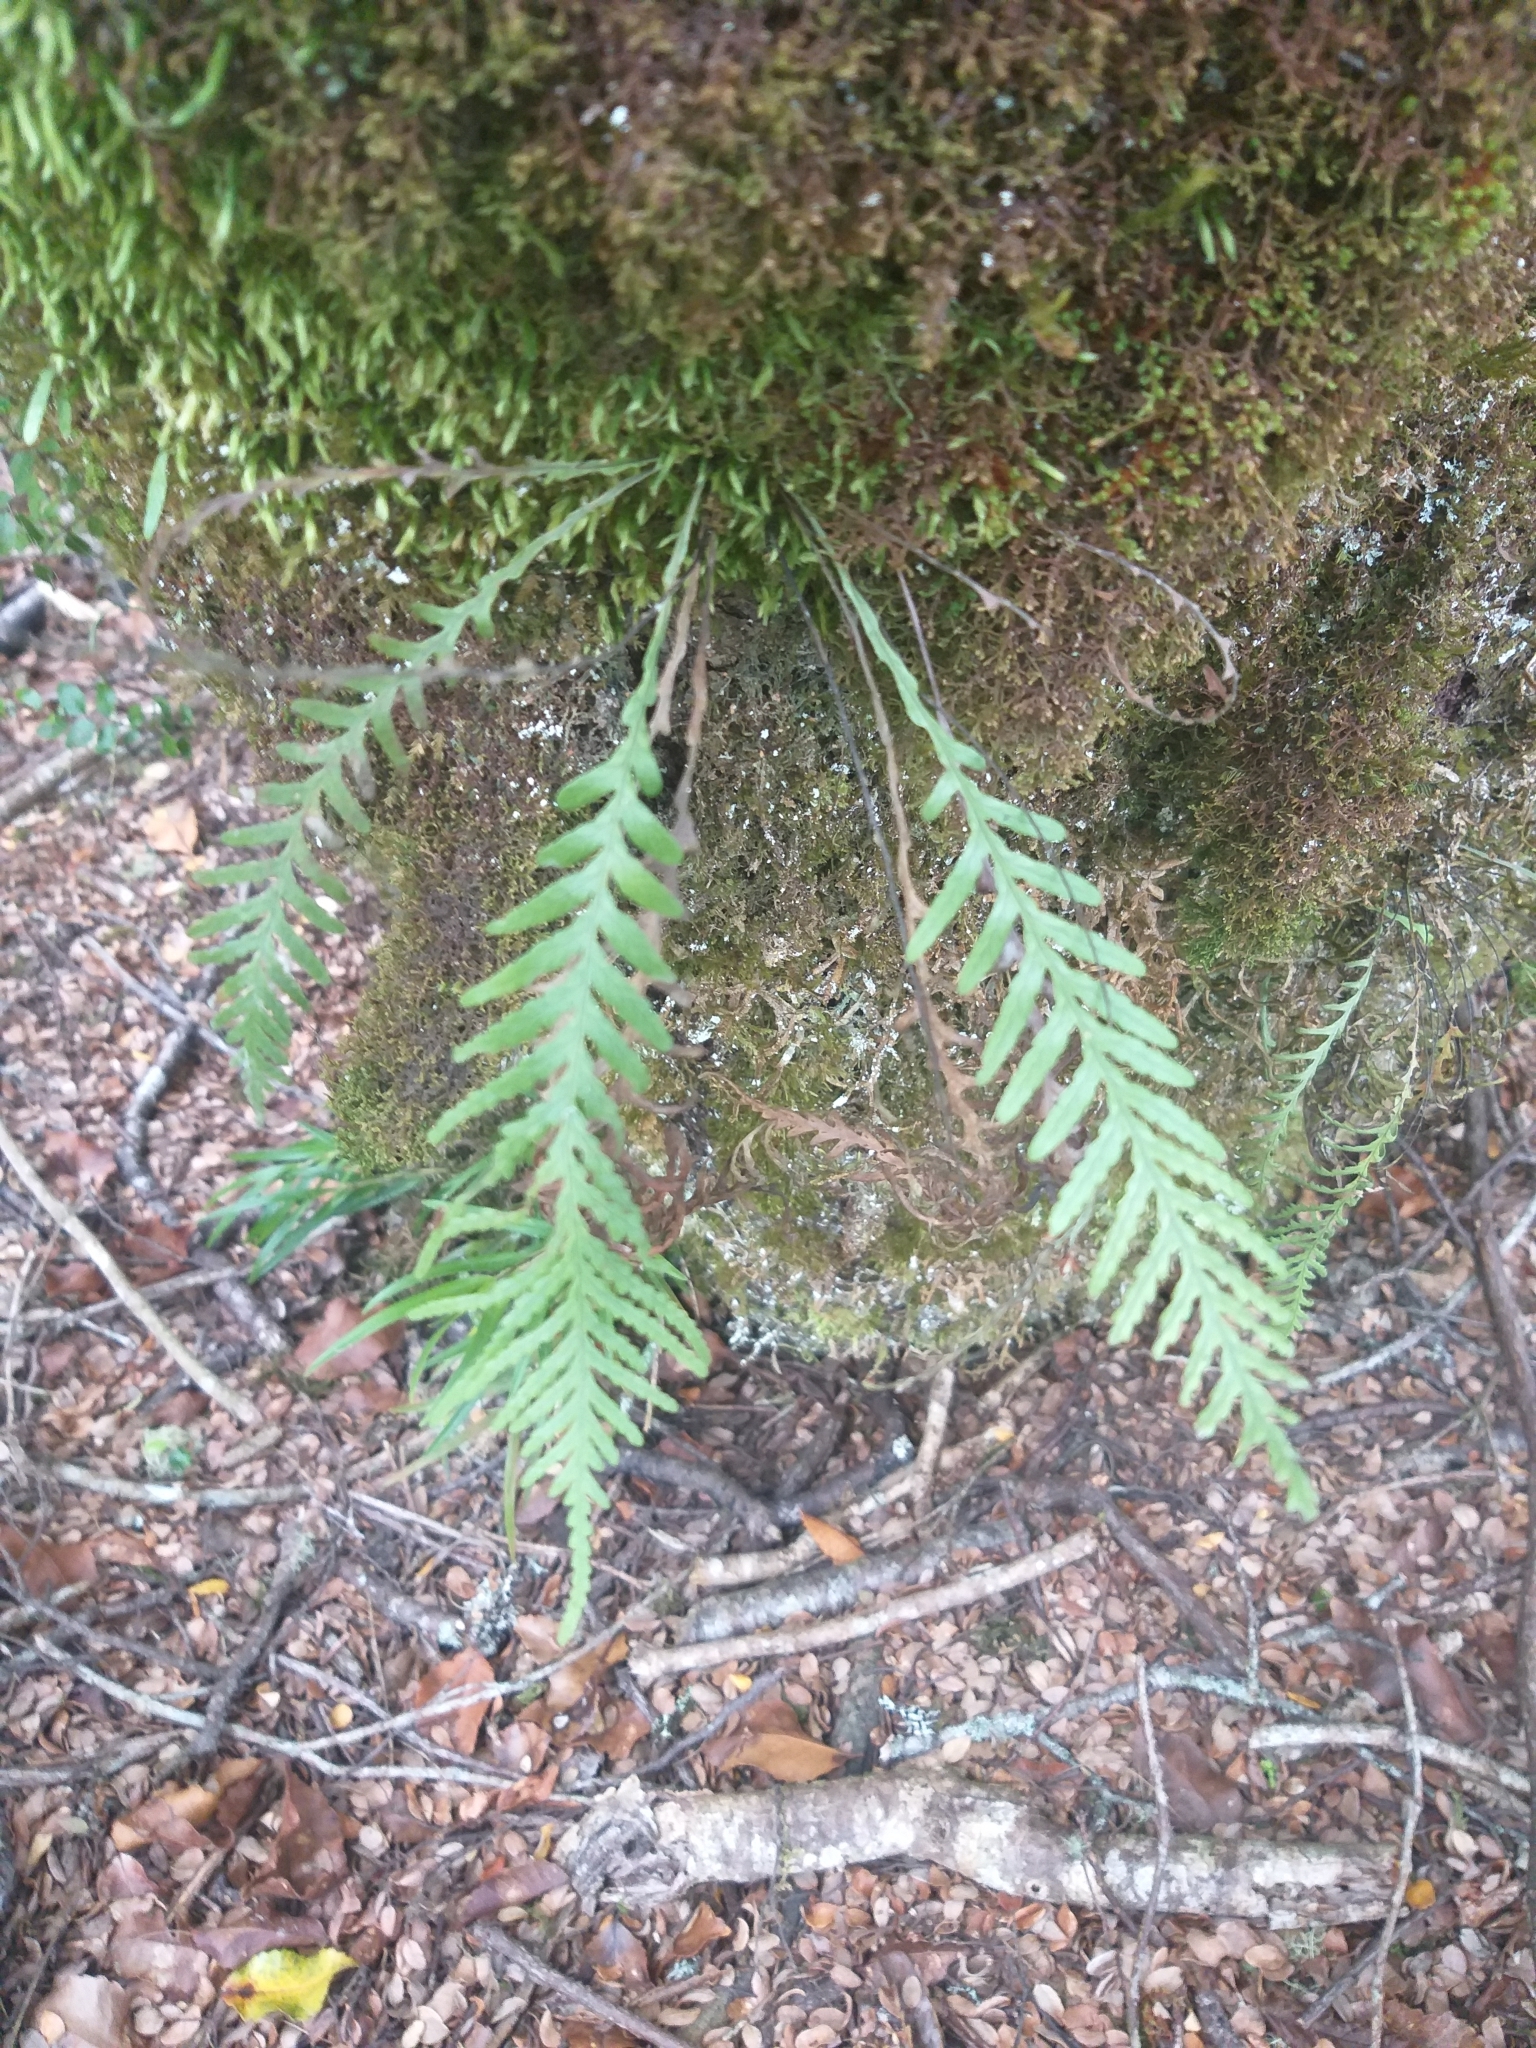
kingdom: Plantae
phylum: Tracheophyta
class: Polypodiopsida
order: Polypodiales
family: Polypodiaceae
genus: Notogrammitis
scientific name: Notogrammitis heterophylla
